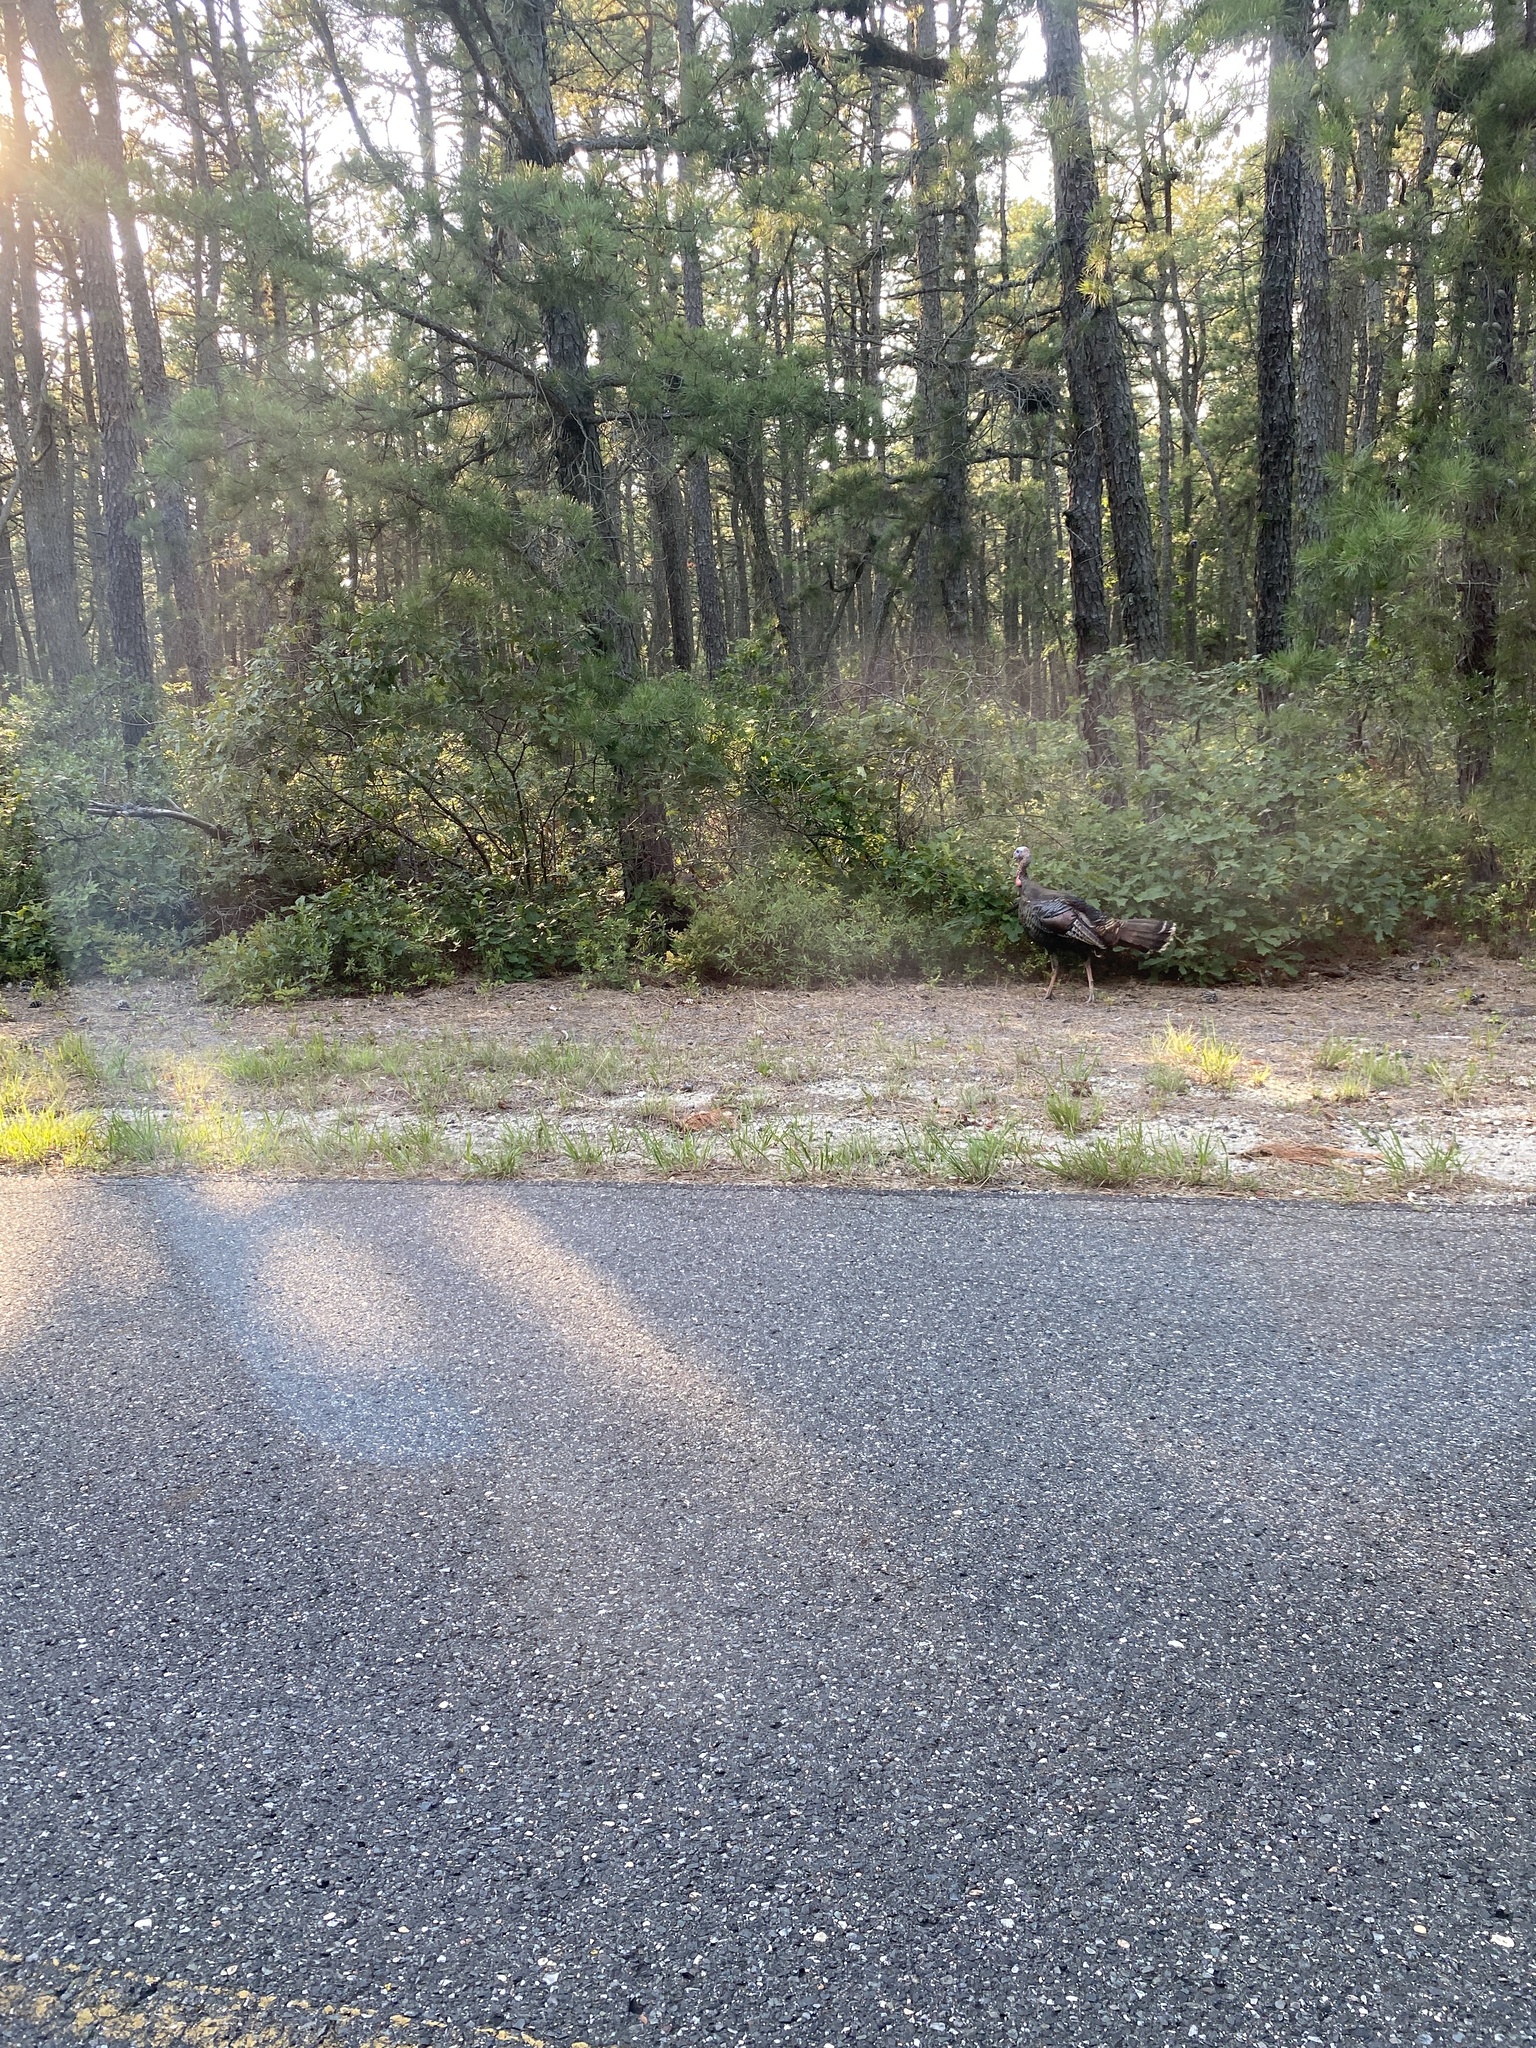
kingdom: Animalia
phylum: Chordata
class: Aves
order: Galliformes
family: Phasianidae
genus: Meleagris
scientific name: Meleagris gallopavo
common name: Wild turkey
